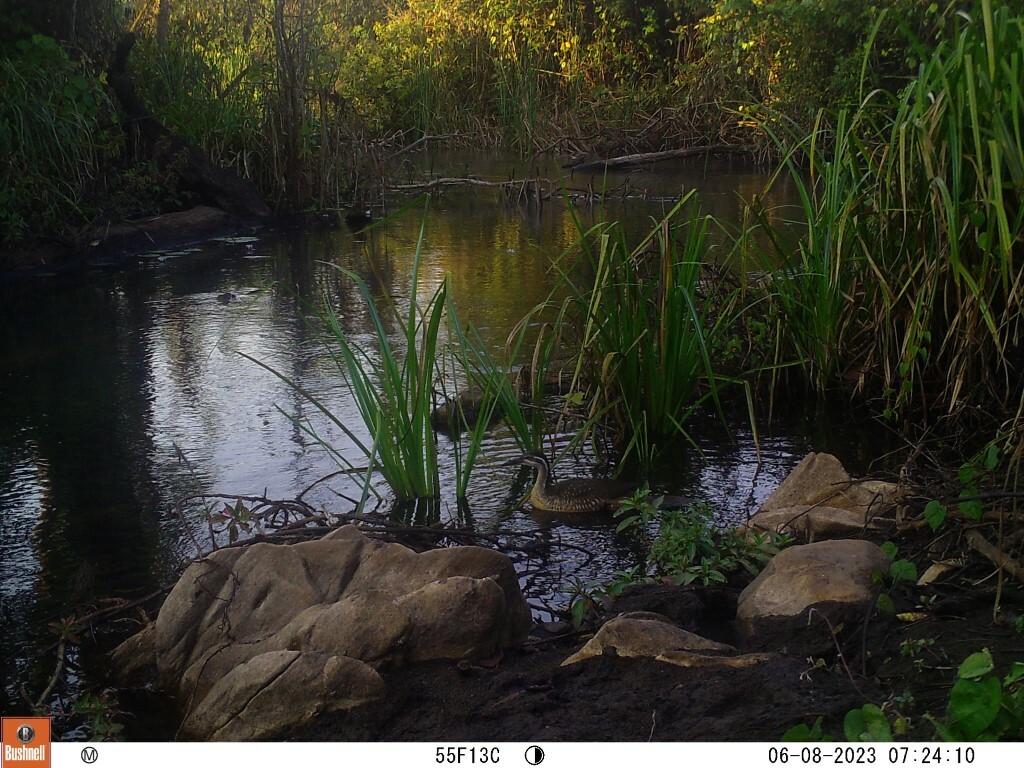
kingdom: Animalia
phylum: Chordata
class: Aves
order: Gruiformes
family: Heliornithidae
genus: Podica
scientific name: Podica senegalensis
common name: African finfoot
